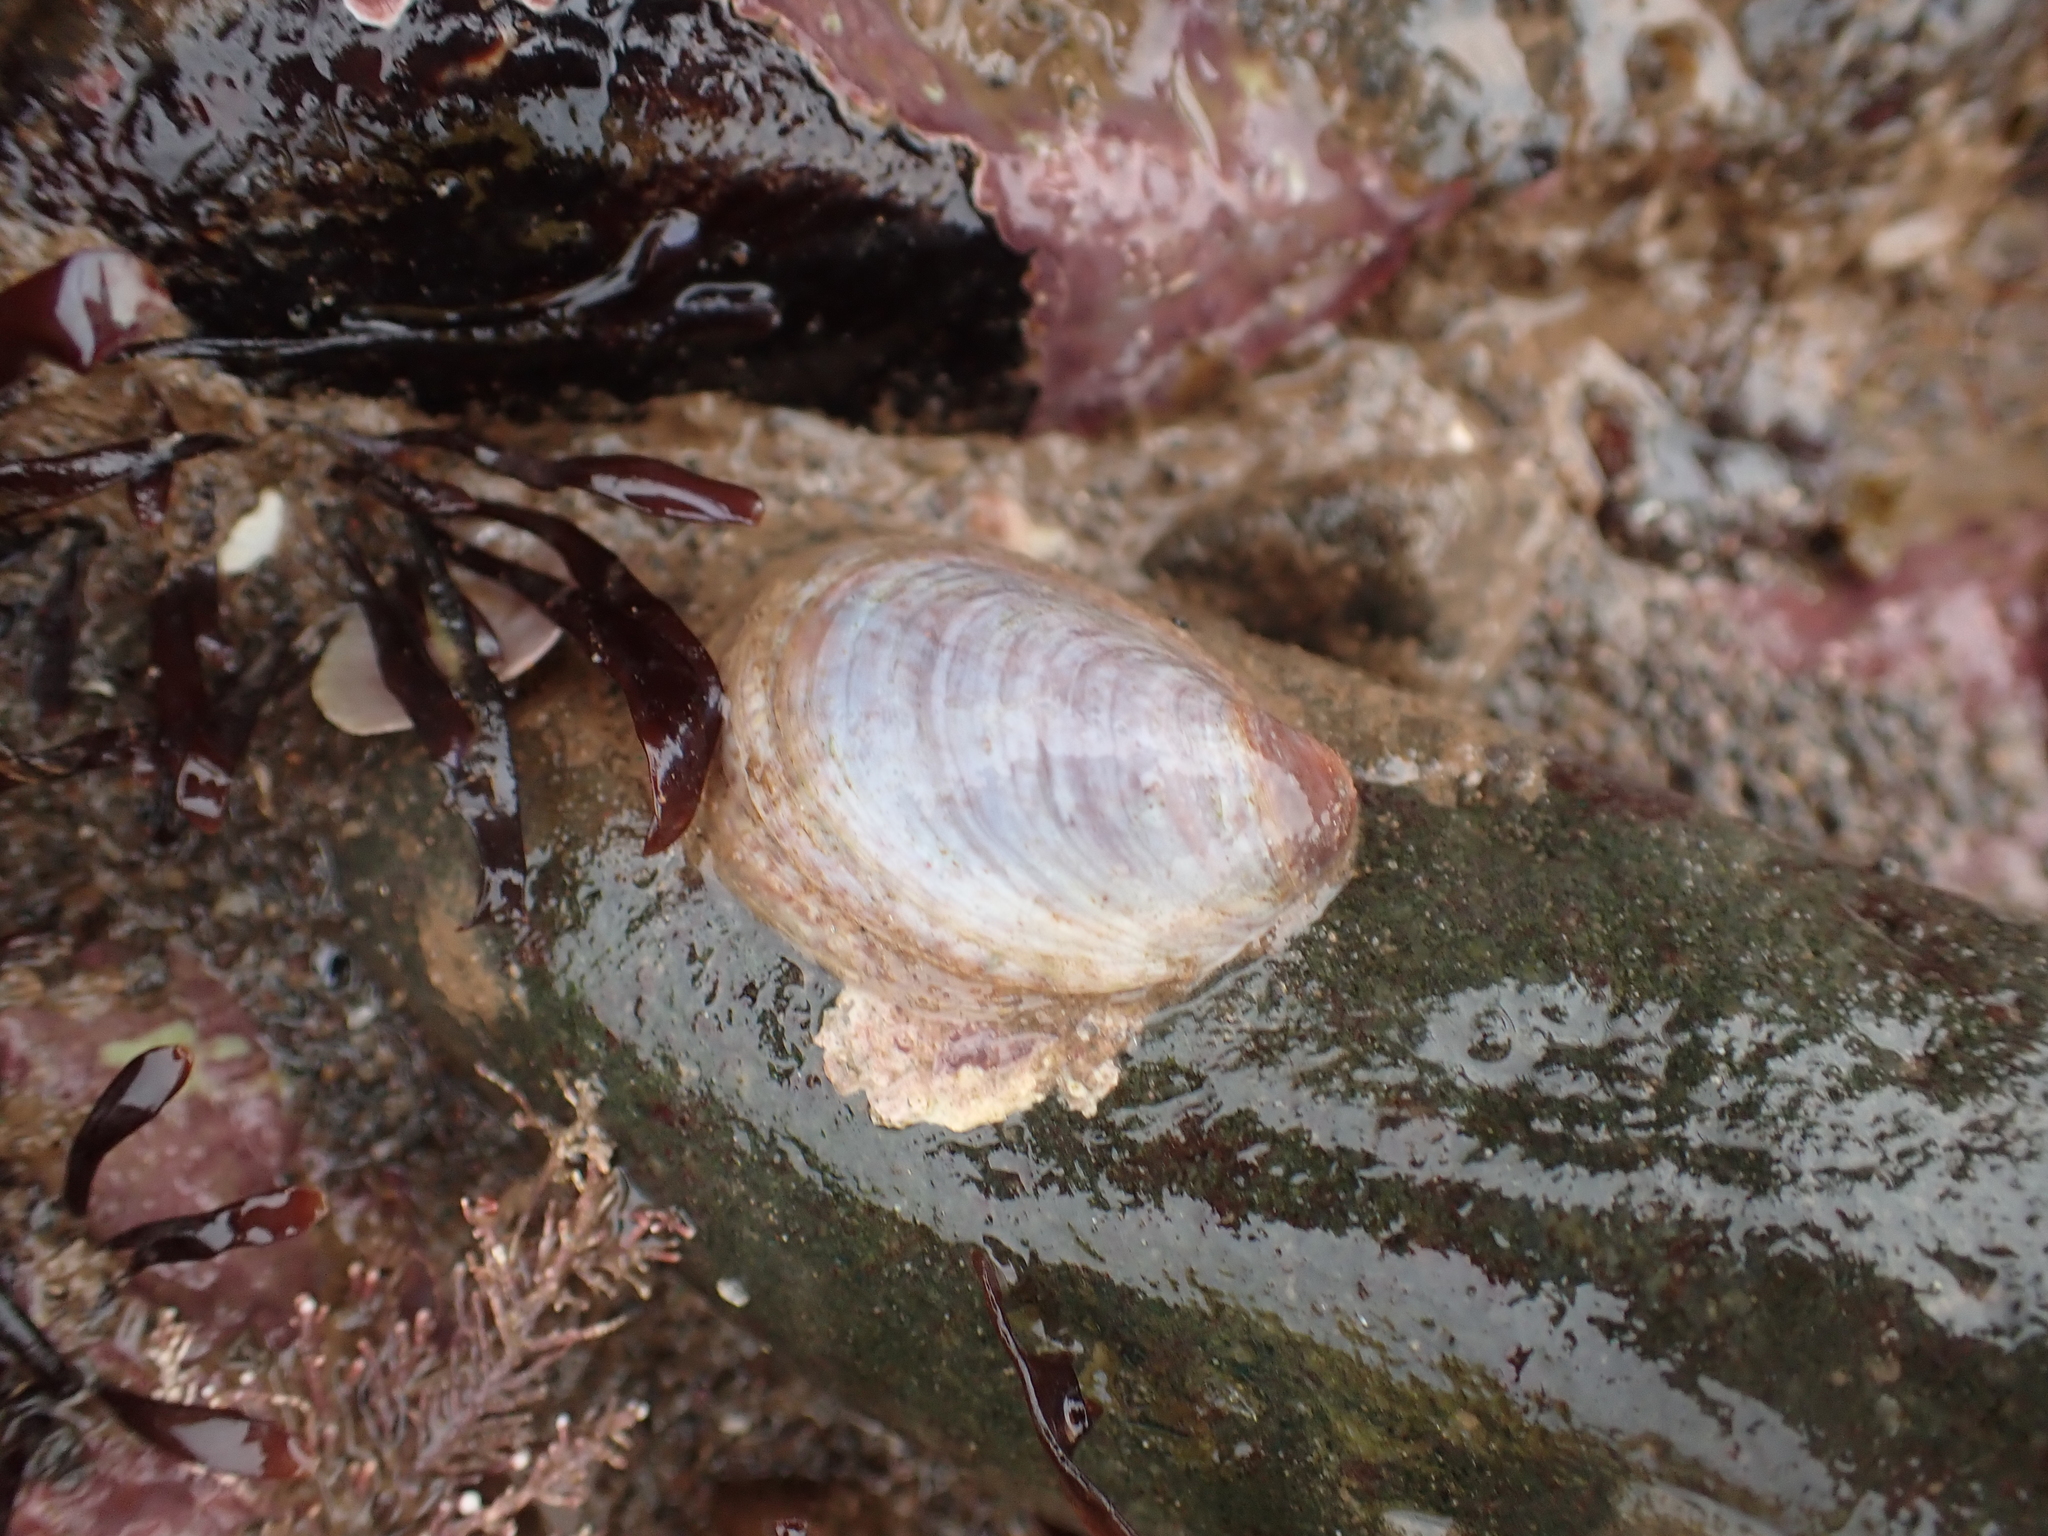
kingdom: Animalia
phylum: Mollusca
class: Gastropoda
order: Littorinimorpha
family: Calyptraeidae
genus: Crepidula
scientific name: Crepidula fornicata
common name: Slipper limpet
